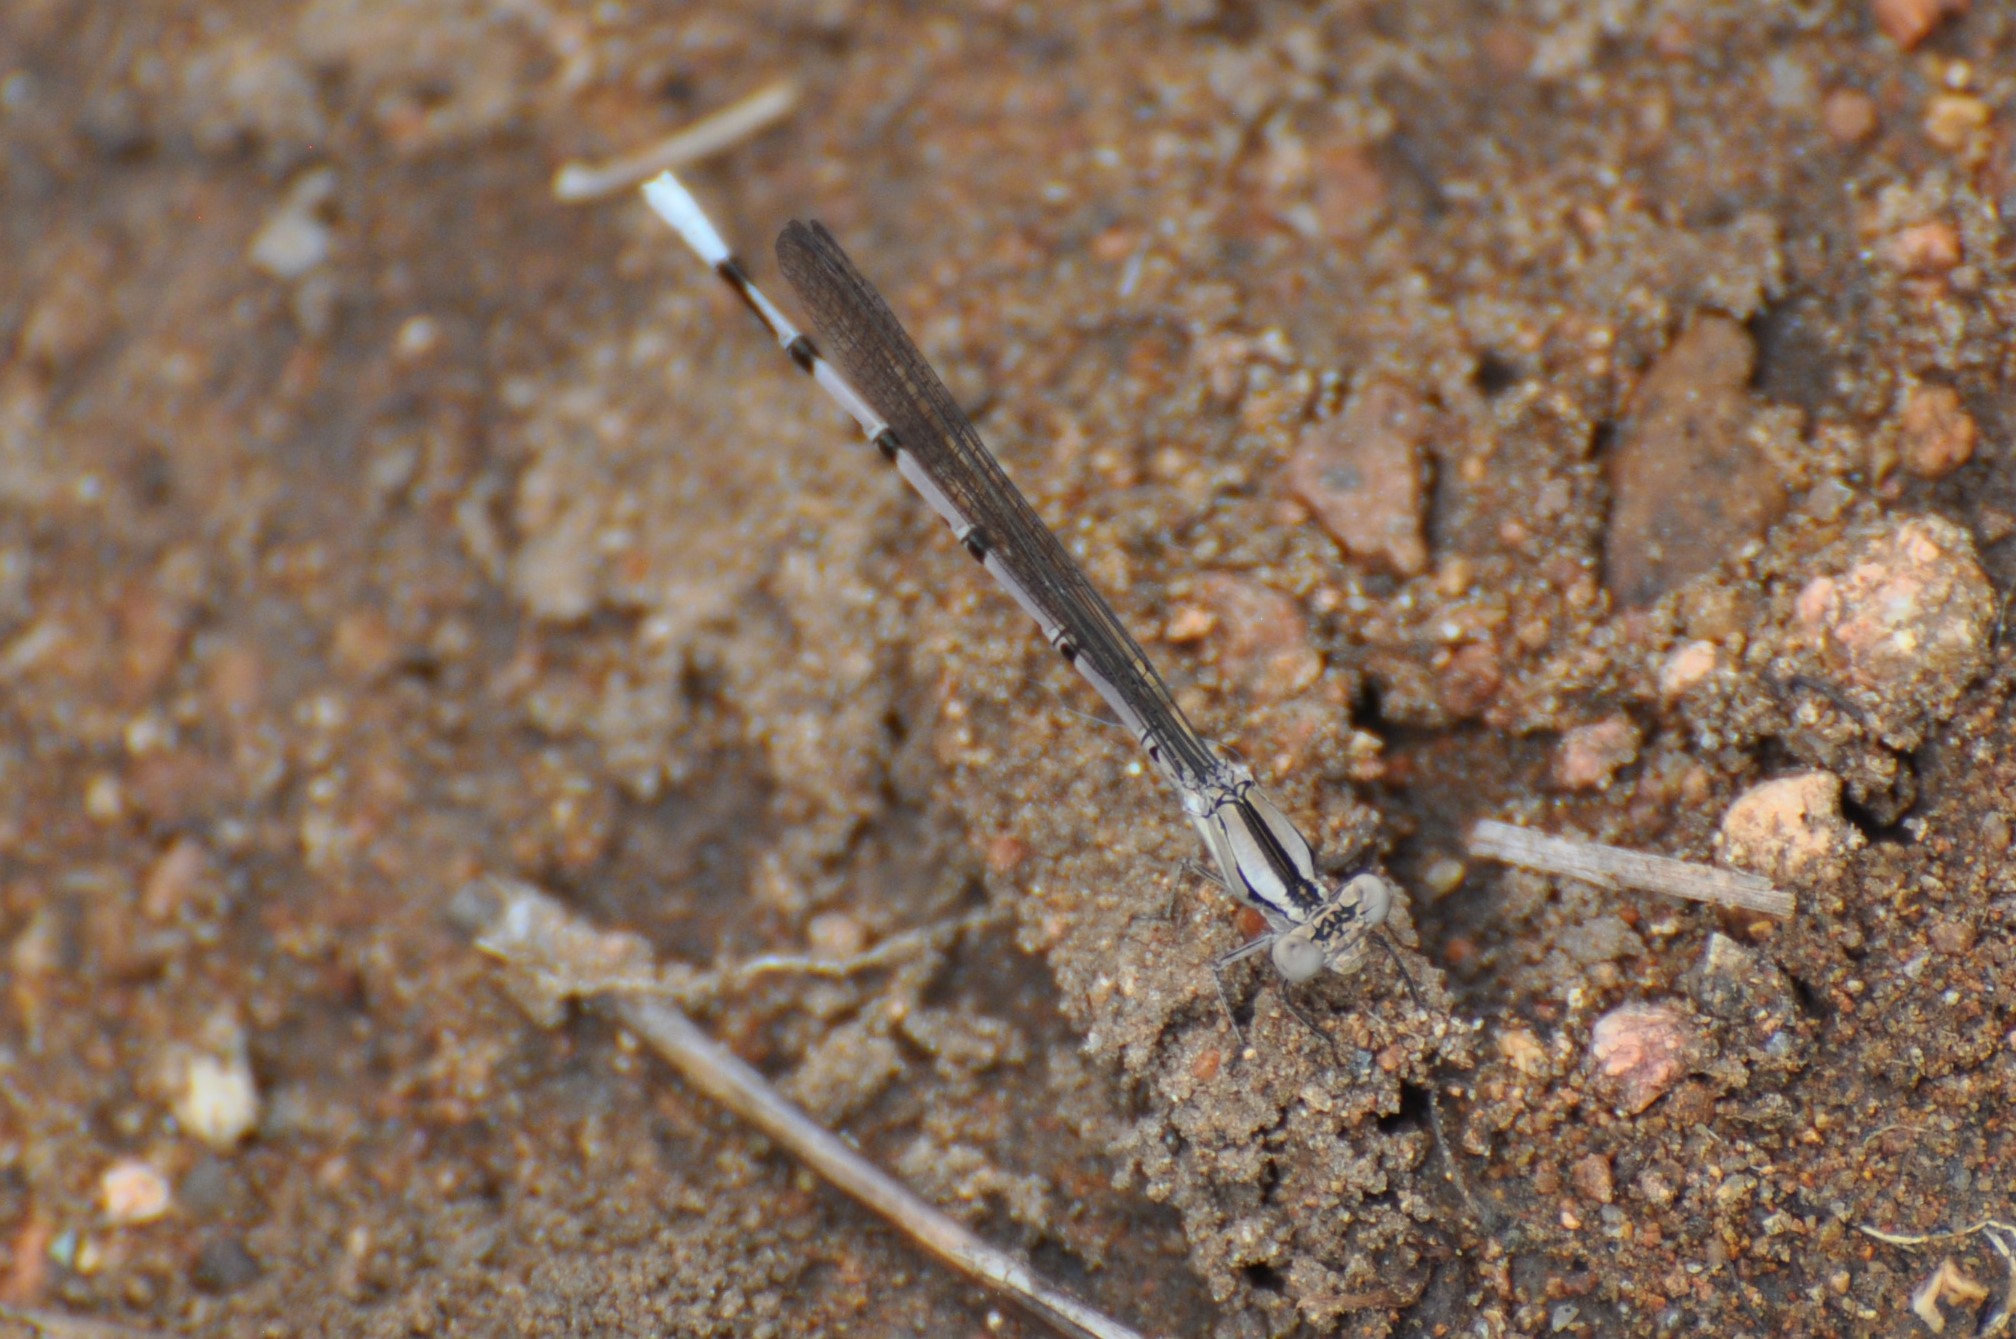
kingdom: Animalia
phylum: Arthropoda
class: Insecta
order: Odonata
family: Coenagrionidae
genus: Argia
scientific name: Argia funebris
